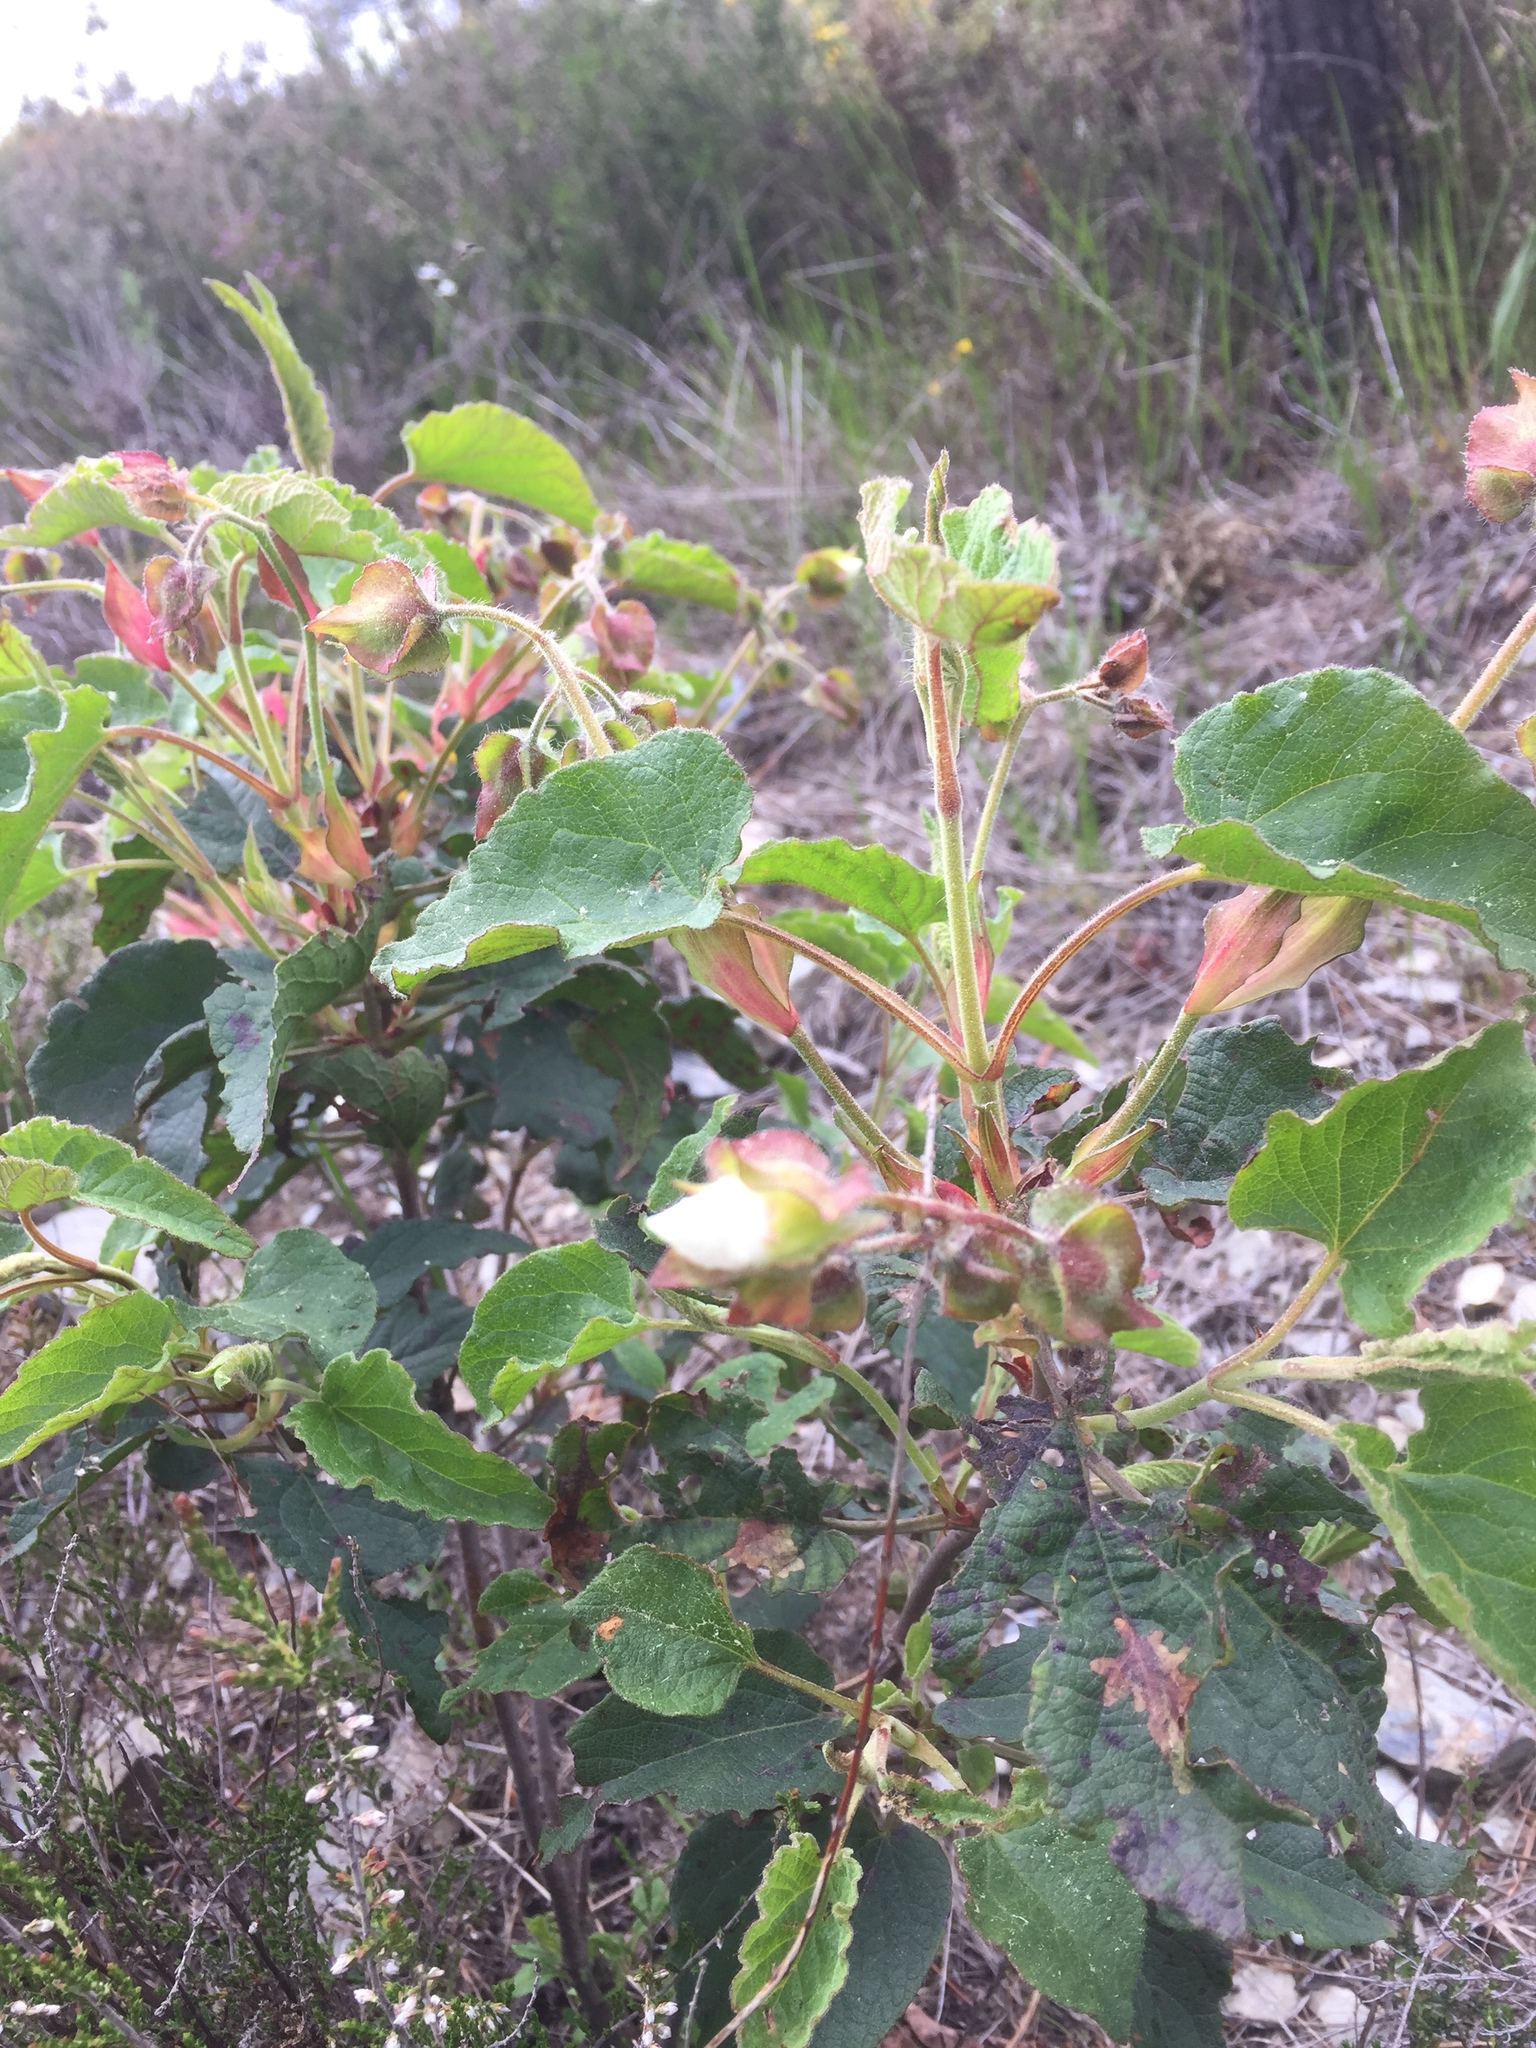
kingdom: Plantae
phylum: Tracheophyta
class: Magnoliopsida
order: Malvales
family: Cistaceae
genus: Cistus
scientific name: Cistus populifolius
